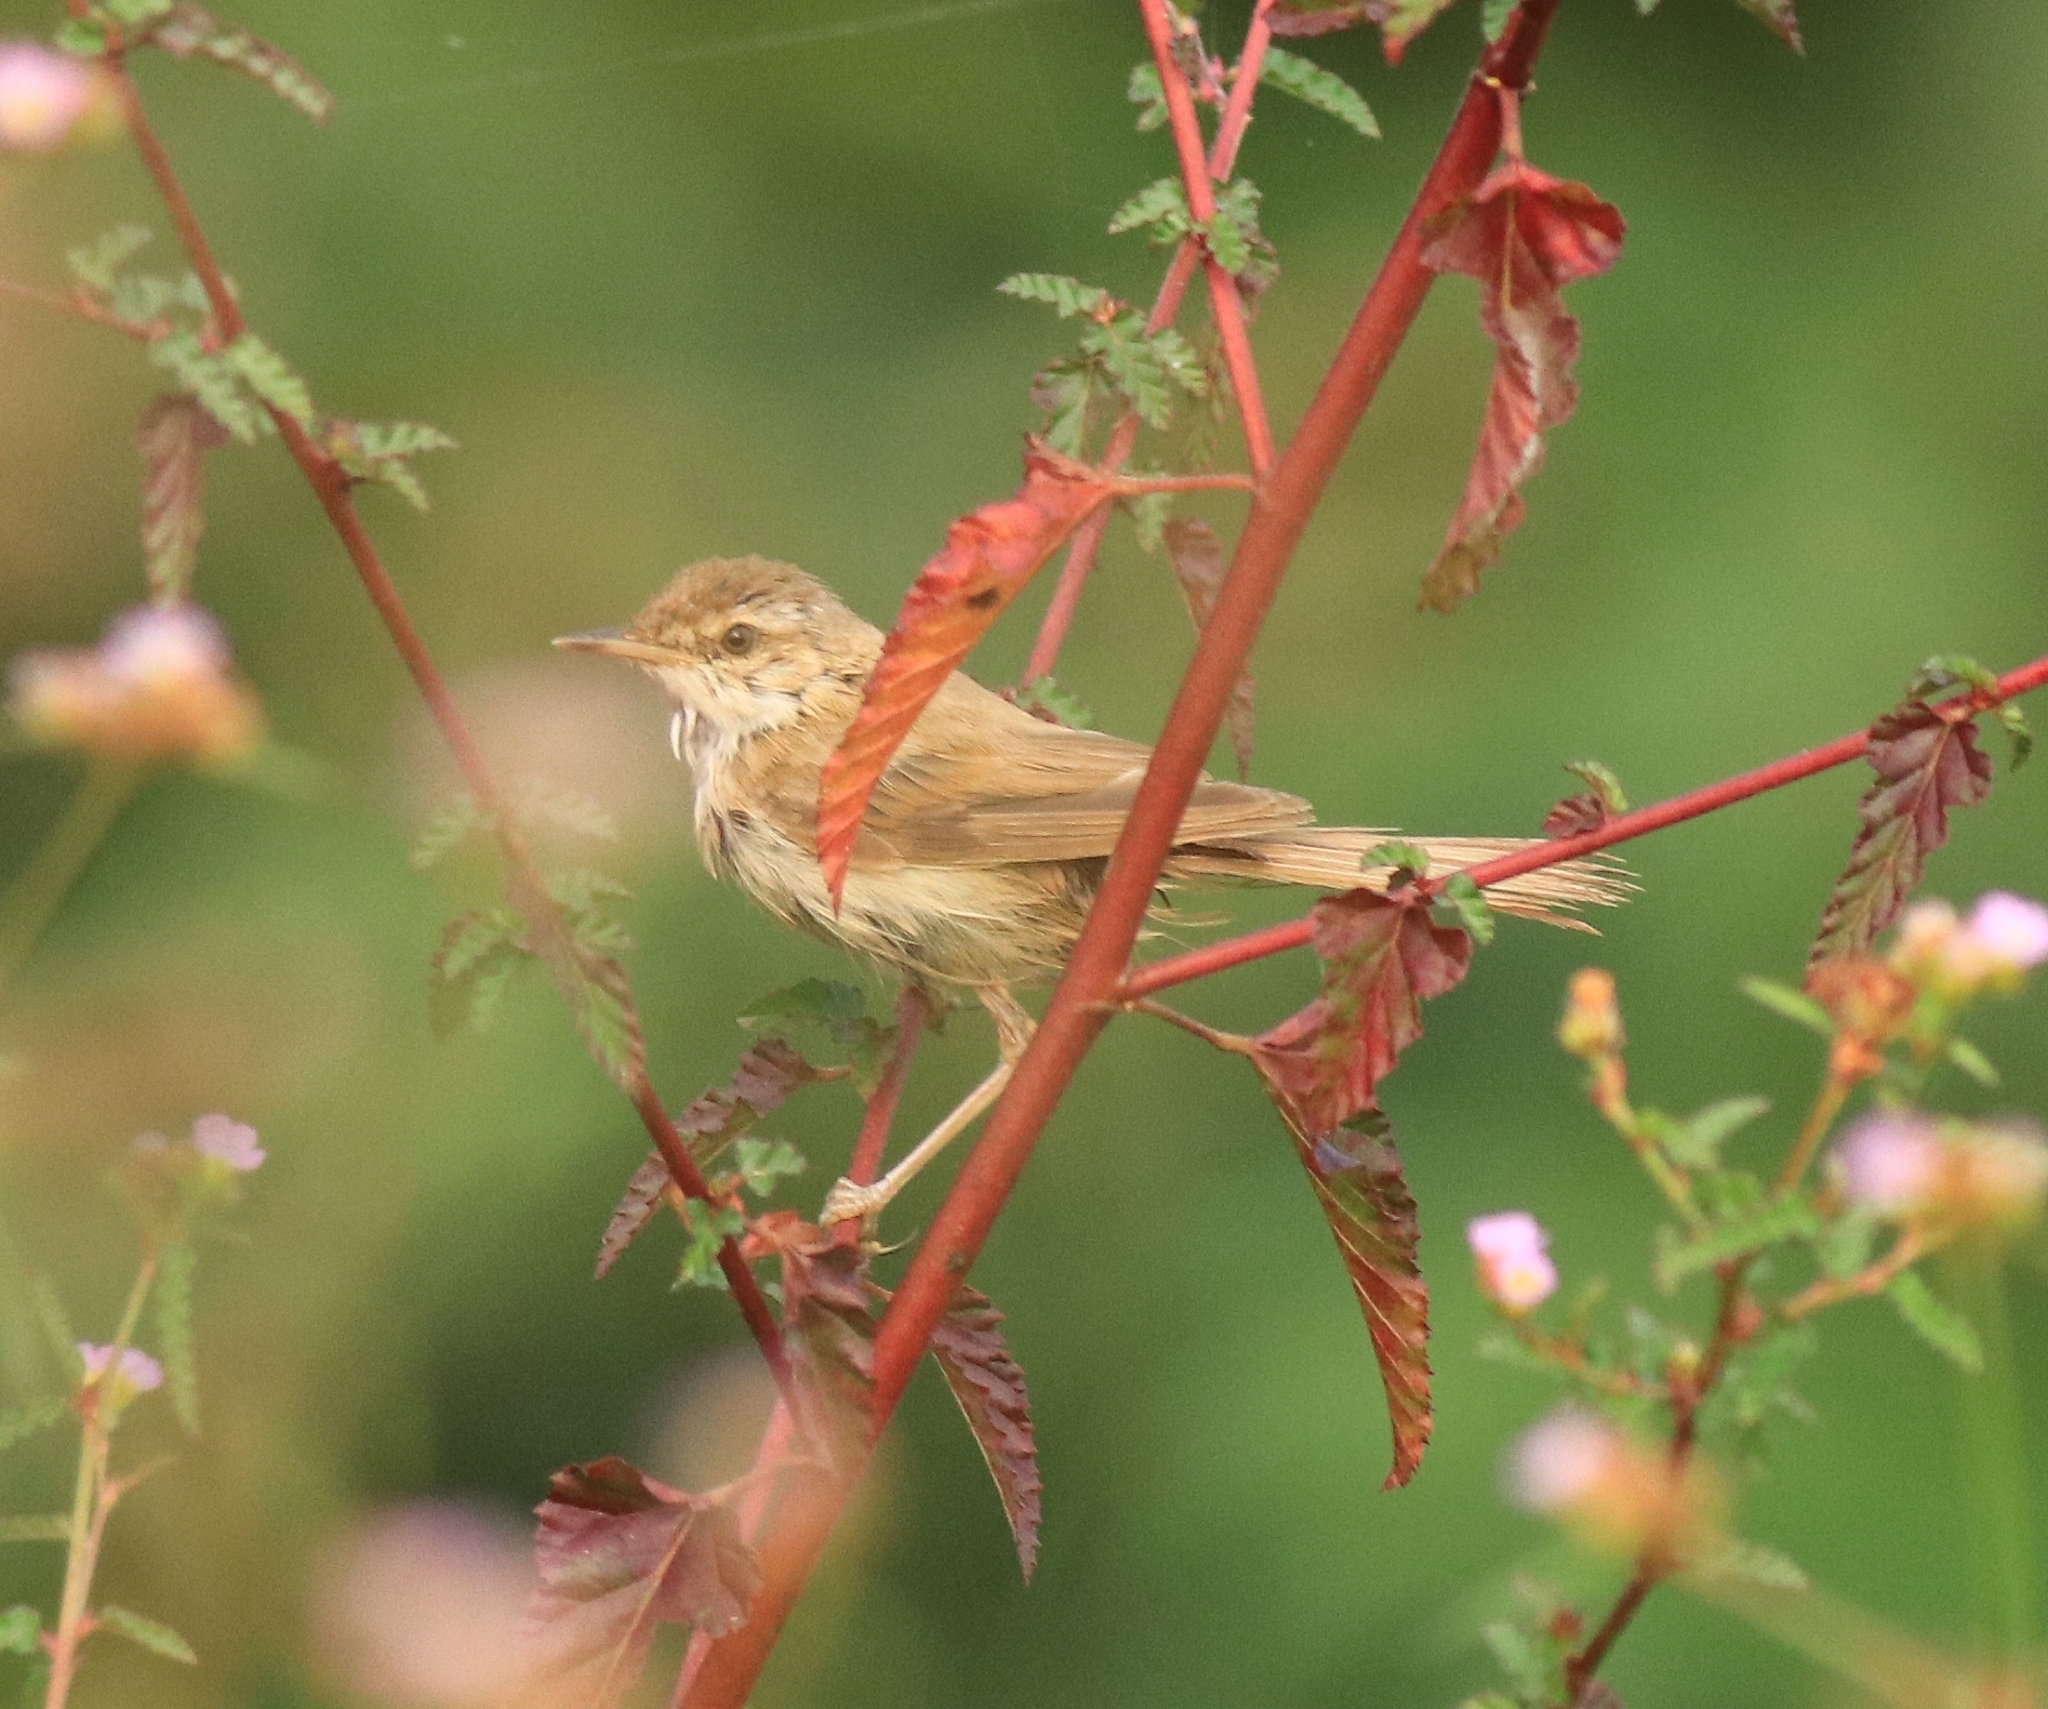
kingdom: Animalia
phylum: Chordata
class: Aves
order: Passeriformes
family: Acrocephalidae
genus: Acrocephalus
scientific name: Acrocephalus agricola
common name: Paddyfield warbler
